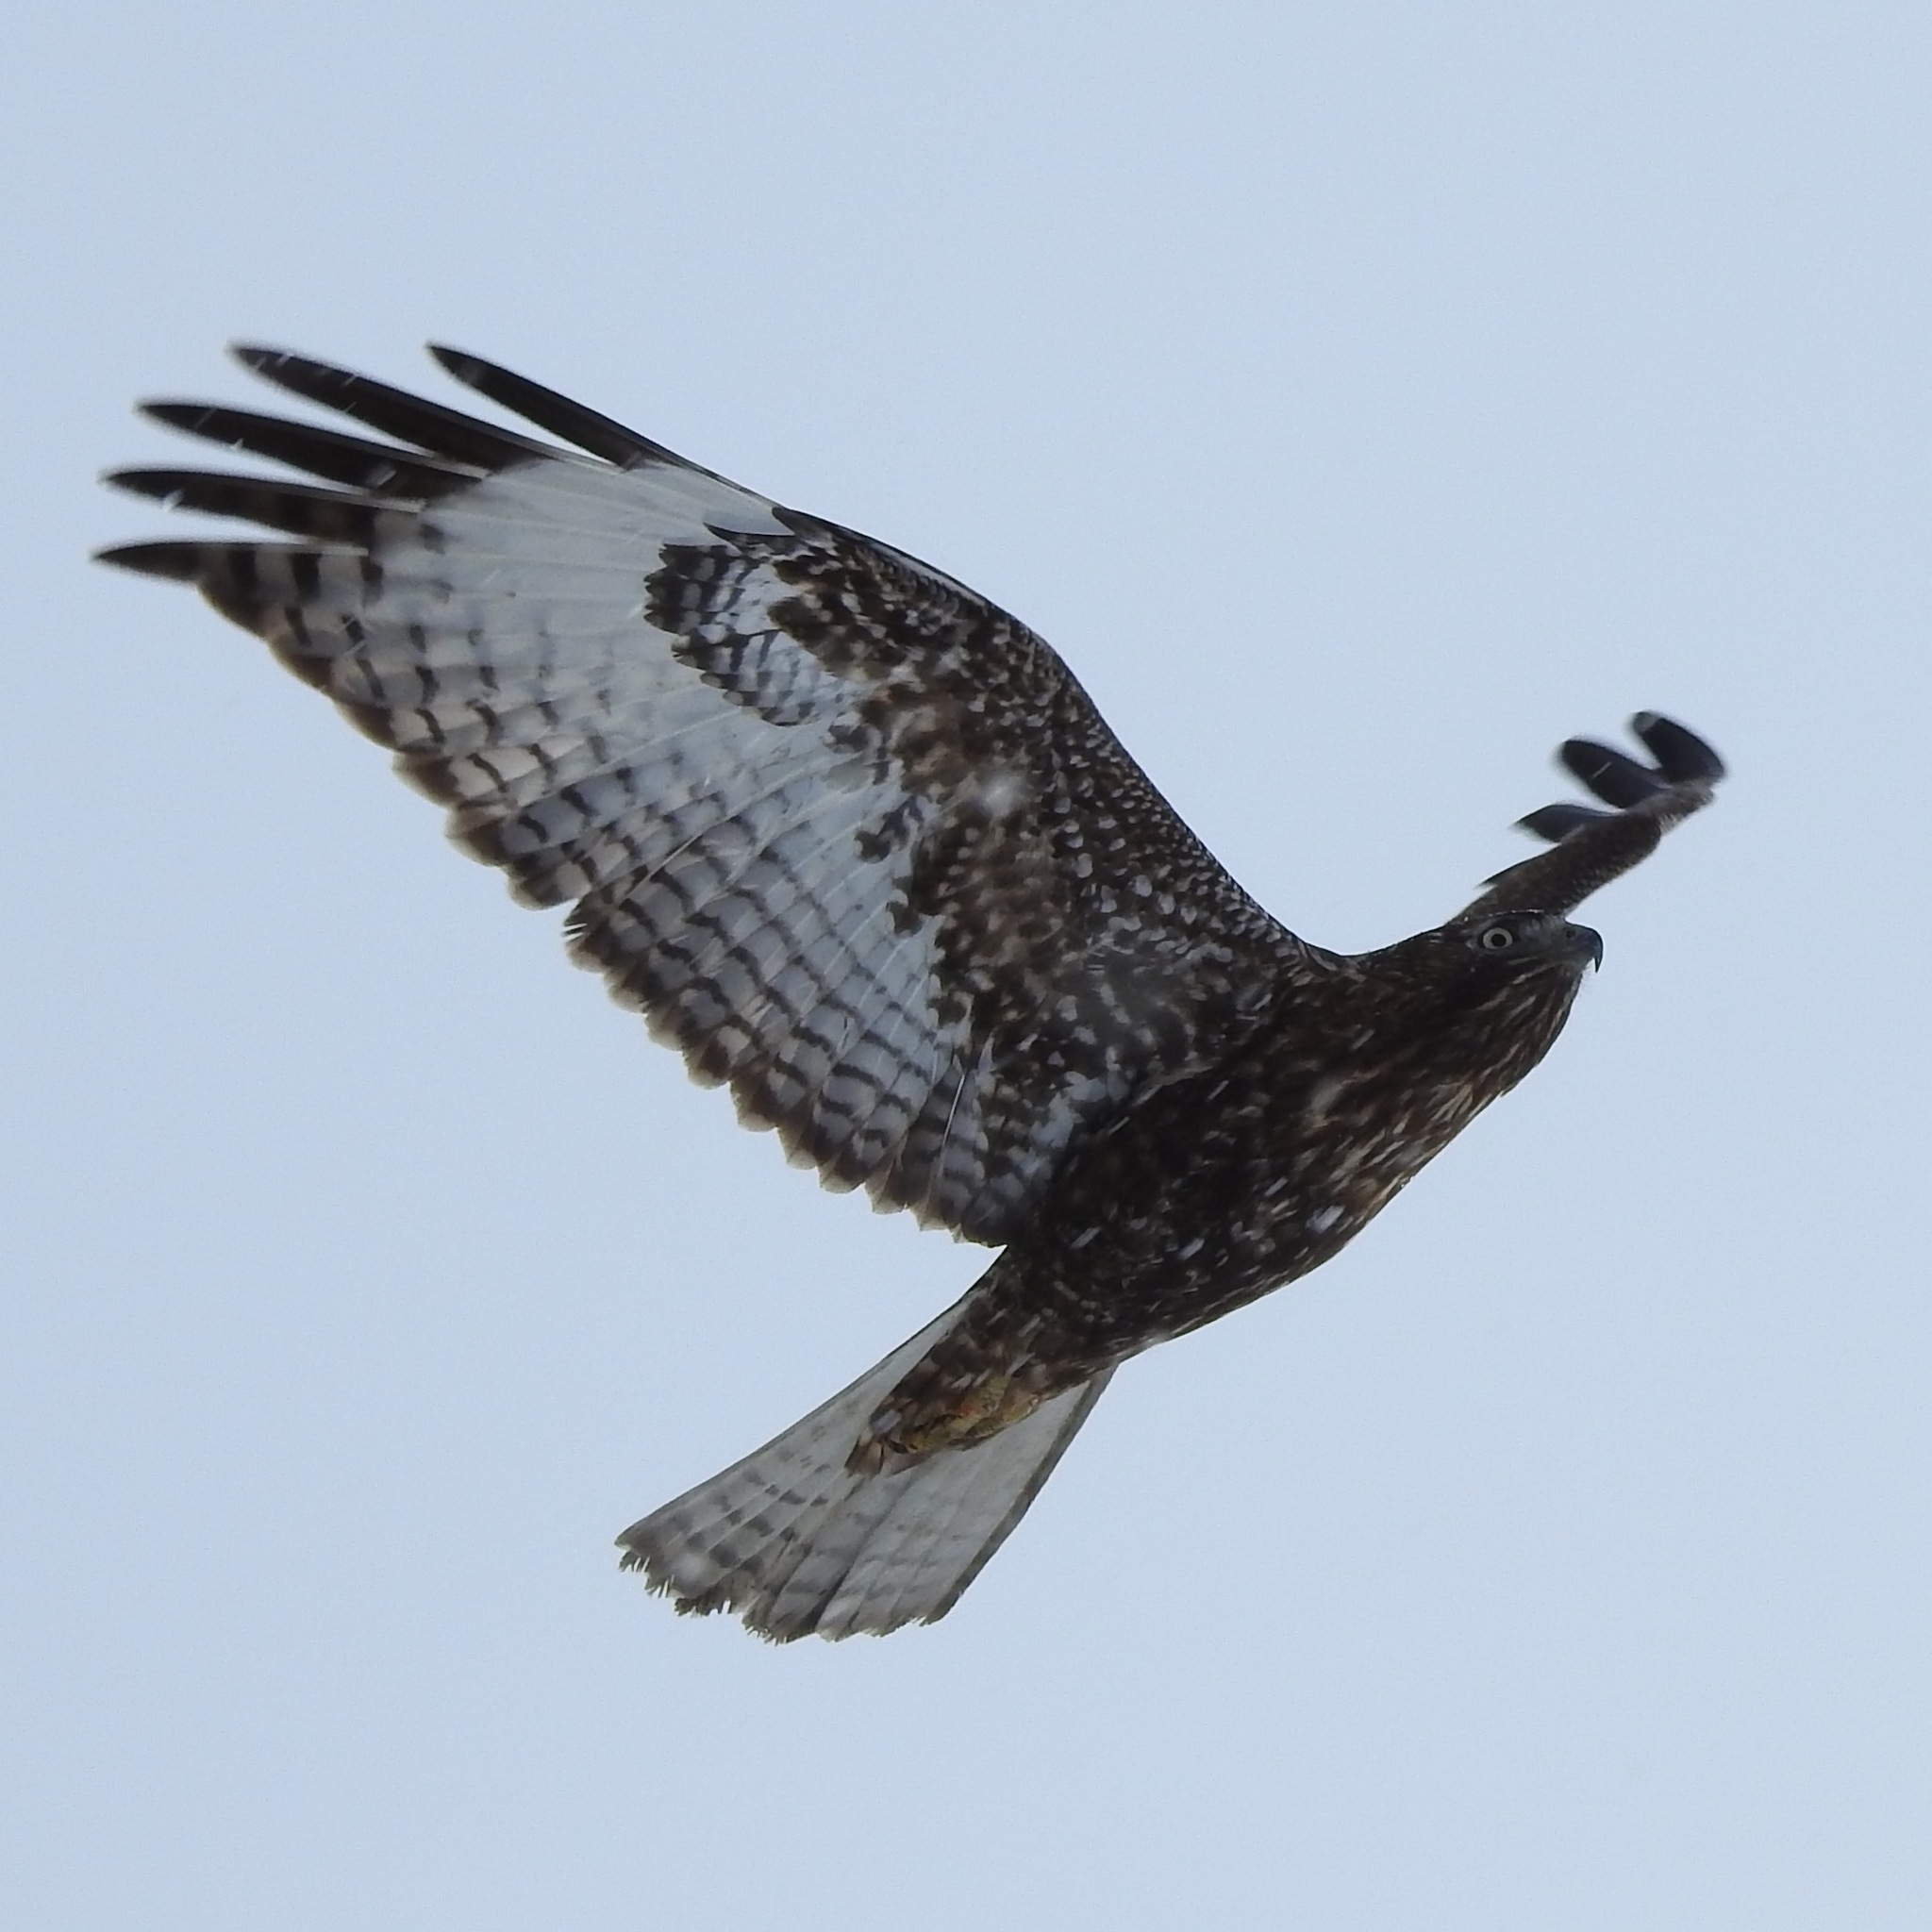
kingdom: Animalia
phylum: Chordata
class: Aves
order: Accipitriformes
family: Accipitridae
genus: Buteo
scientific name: Buteo jamaicensis
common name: Red-tailed hawk
